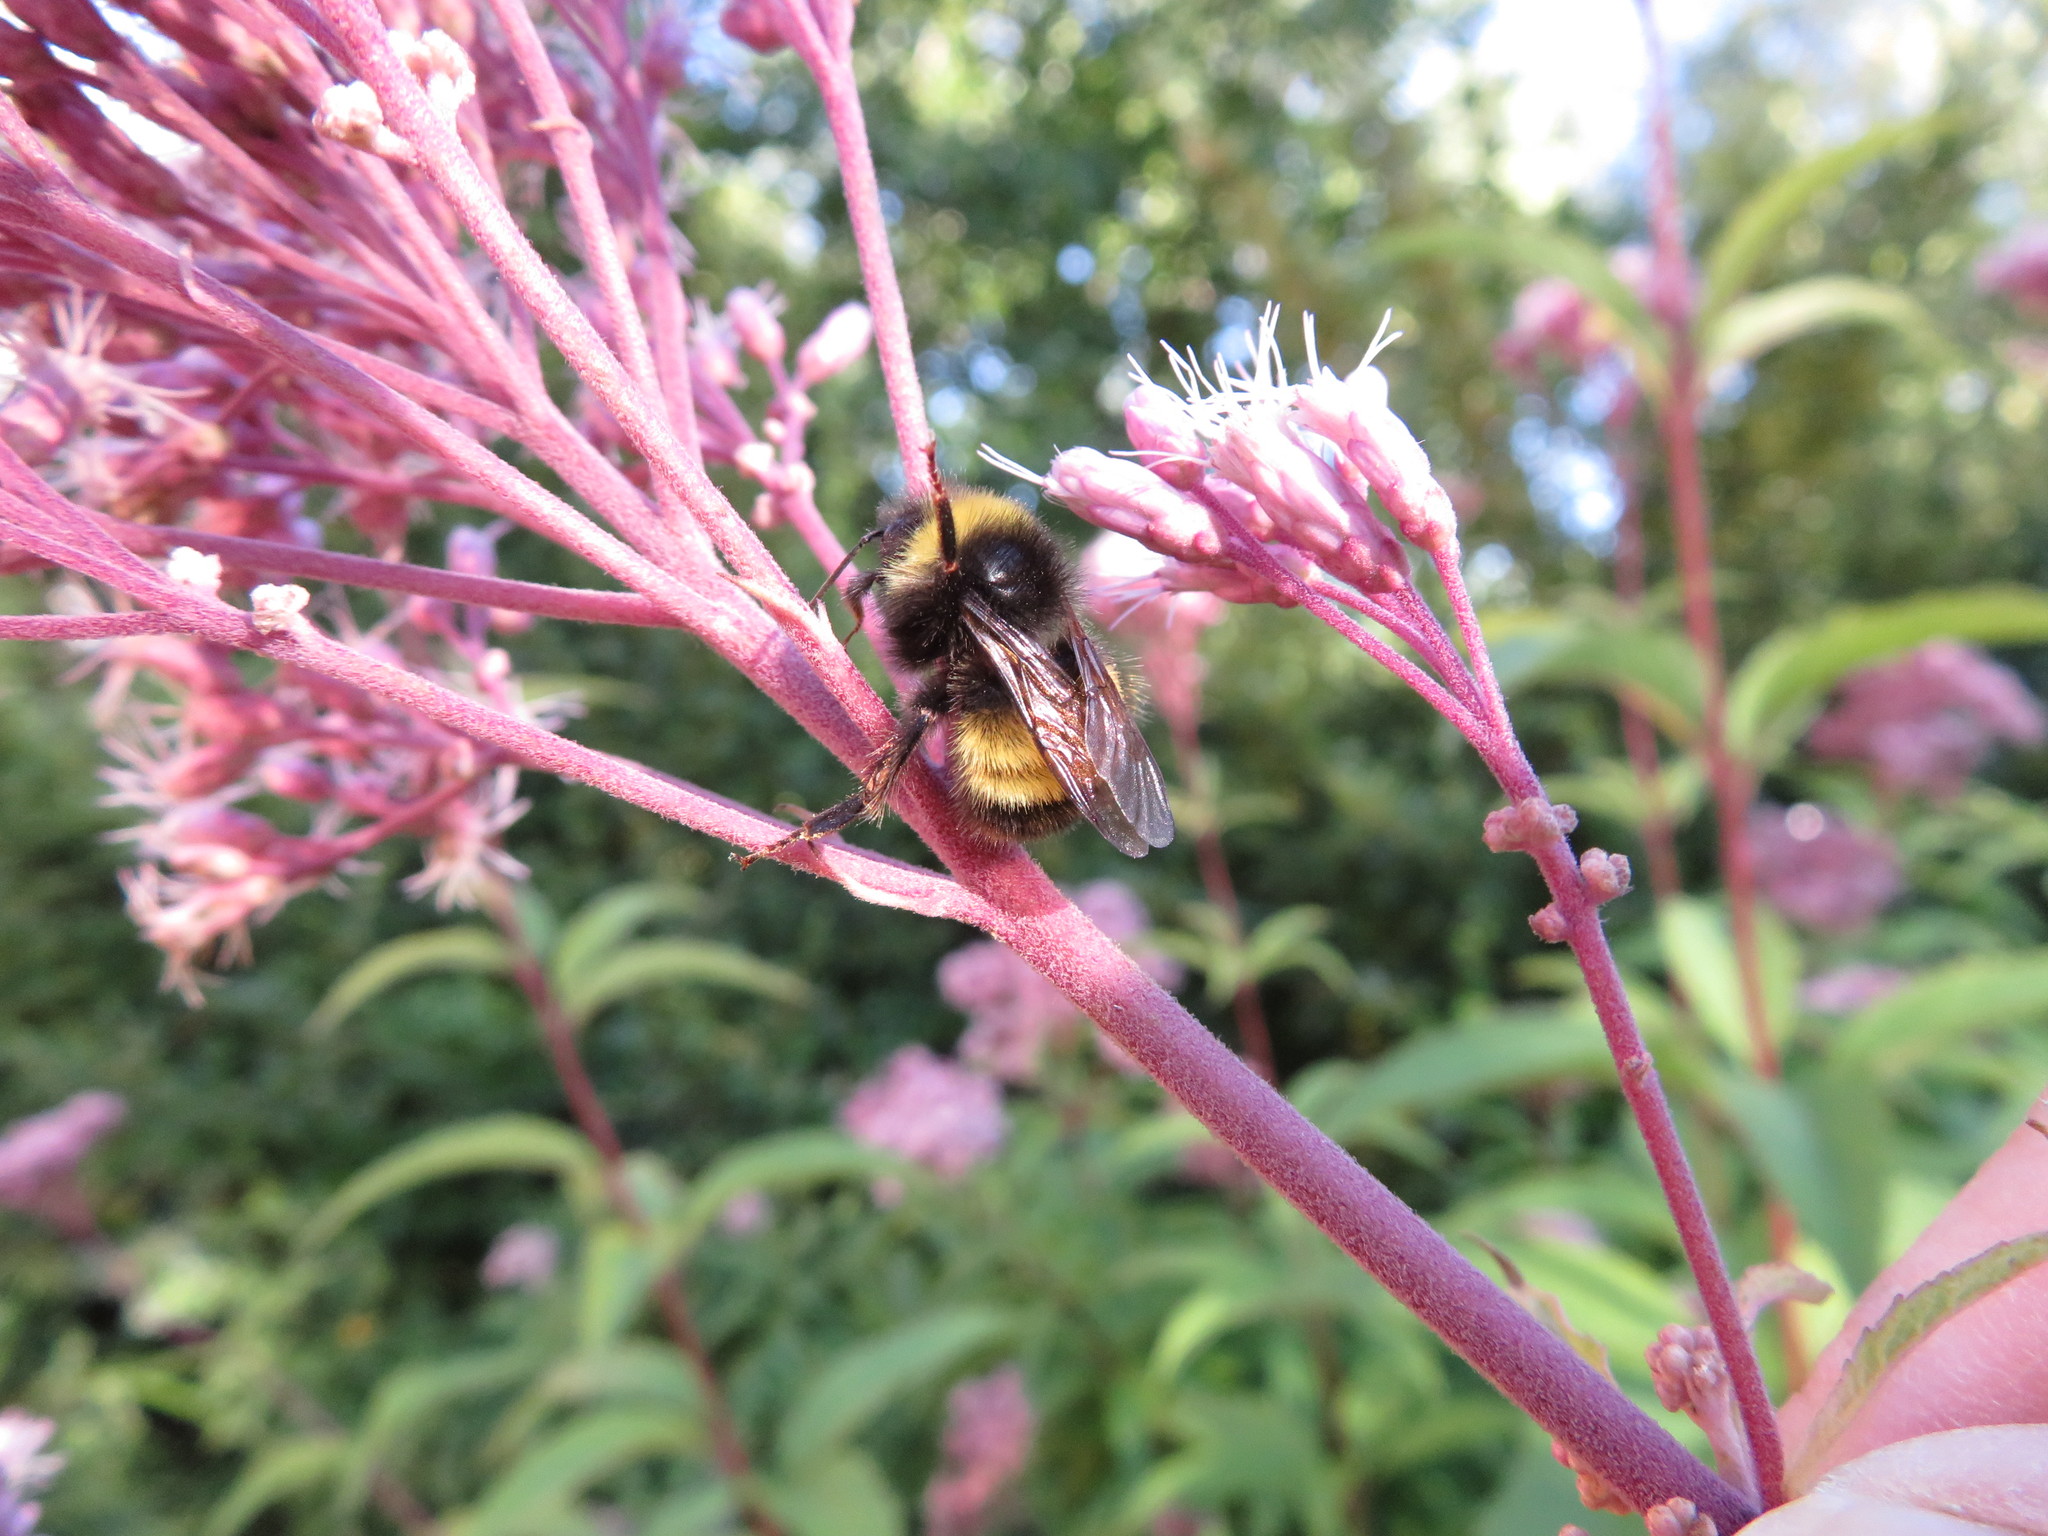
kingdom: Animalia
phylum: Arthropoda
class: Insecta
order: Hymenoptera
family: Apidae
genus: Bombus
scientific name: Bombus terricola
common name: Yellow-banded bumble bee
